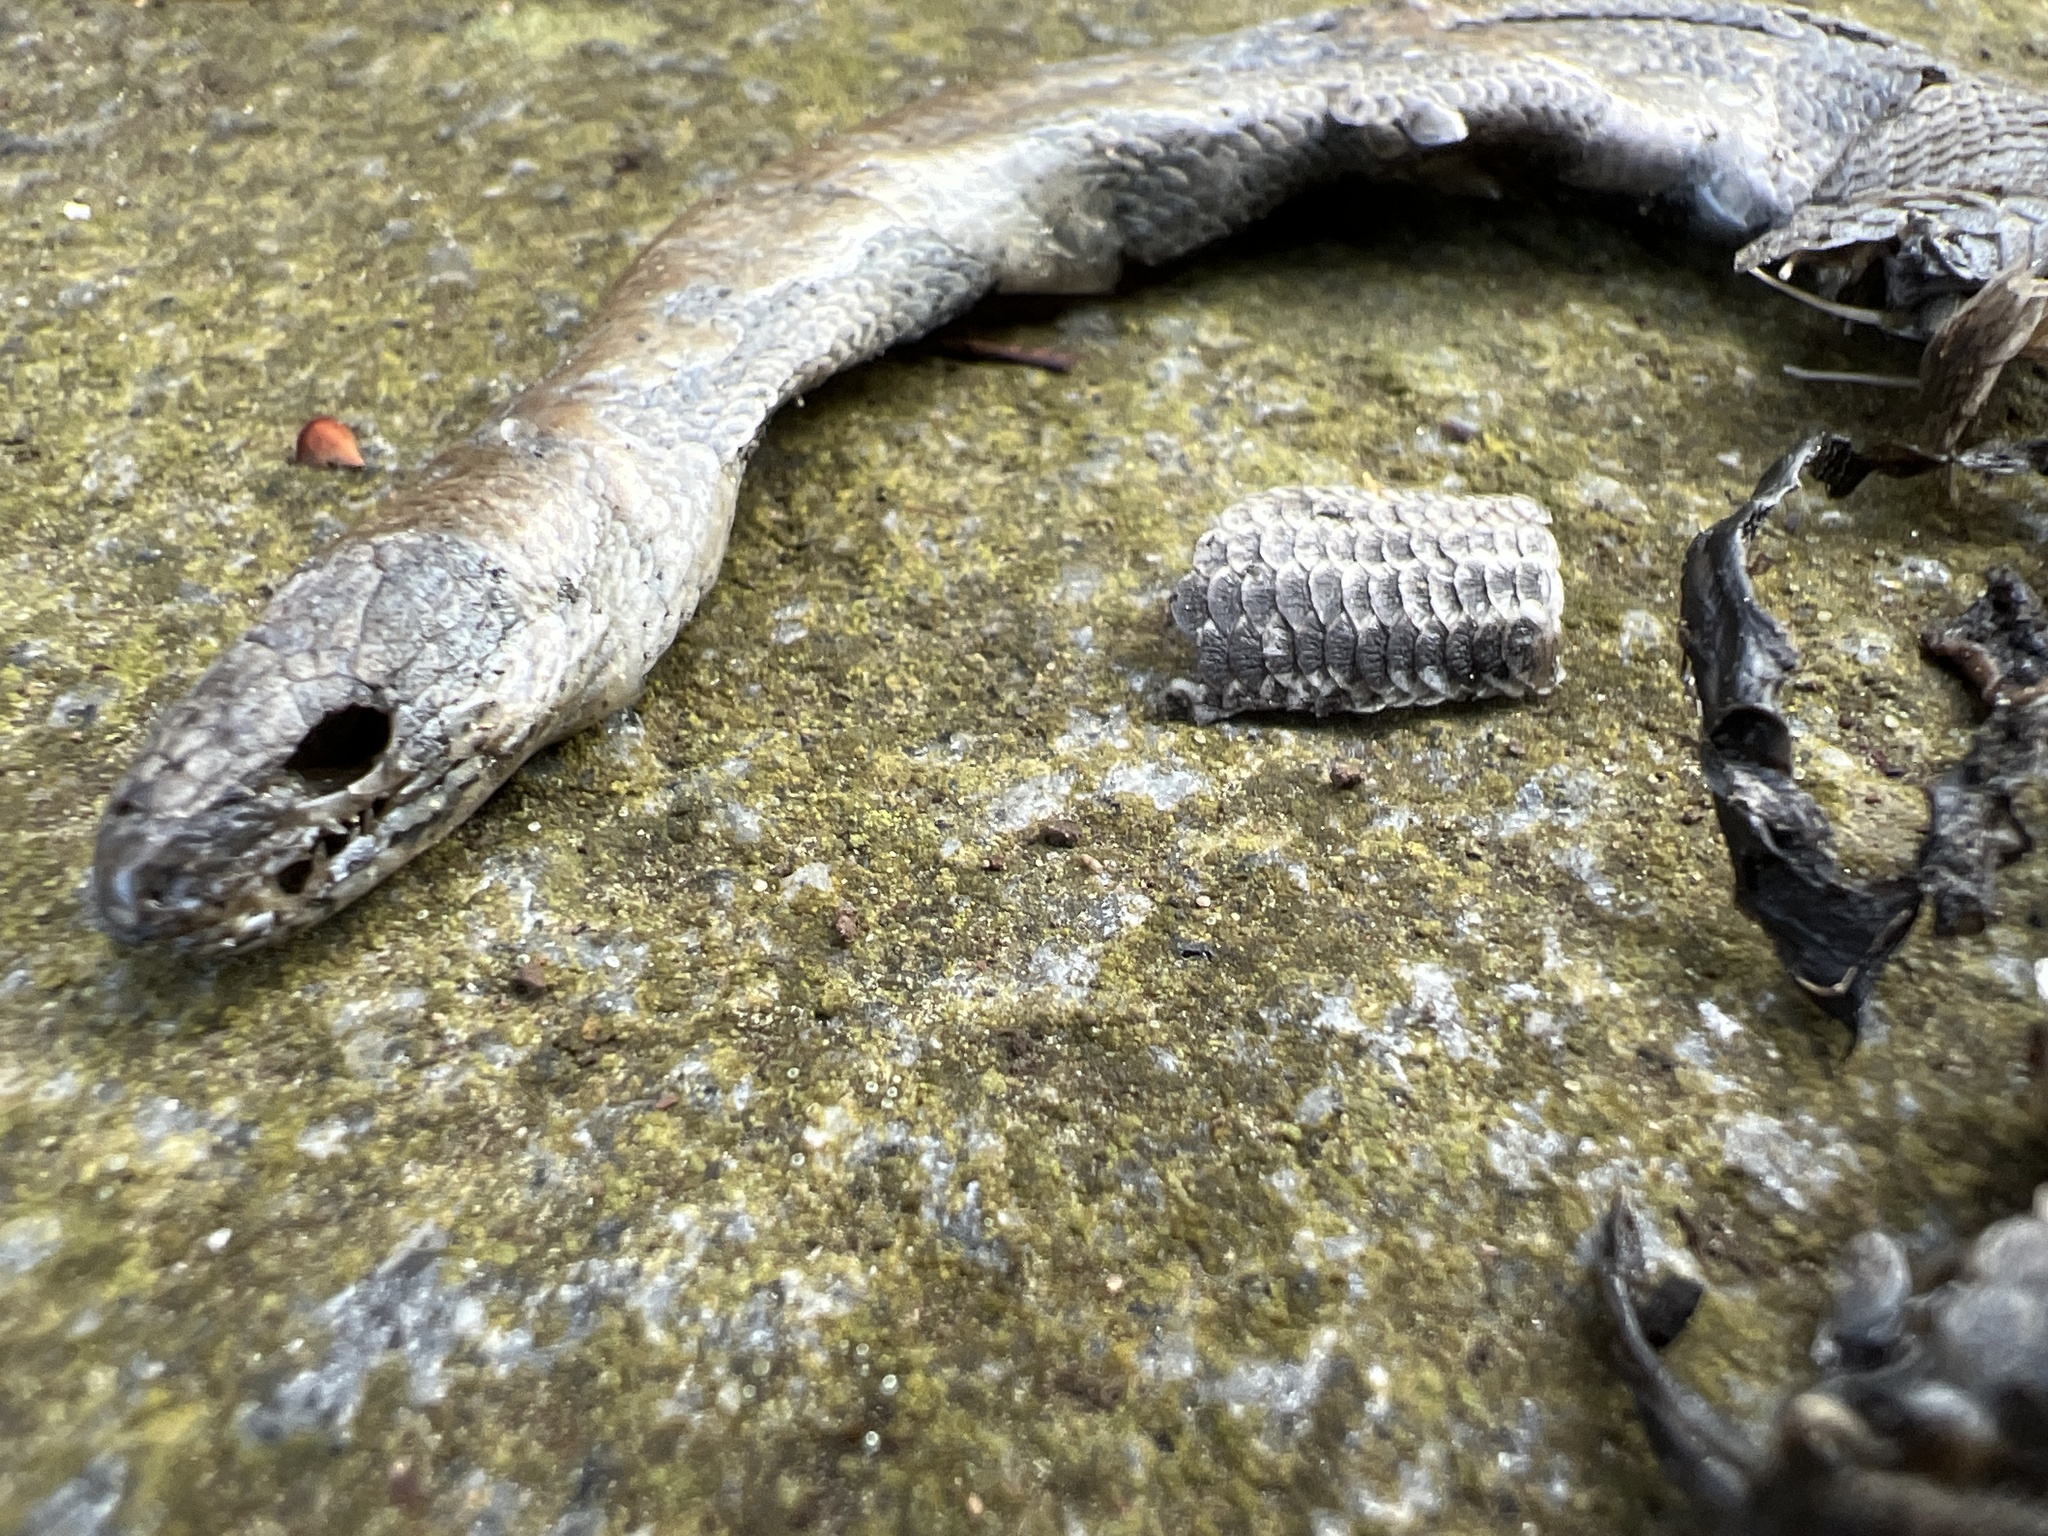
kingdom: Animalia
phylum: Chordata
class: Squamata
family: Anguidae
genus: Anguis
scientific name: Anguis fragilis
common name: Slow worm
